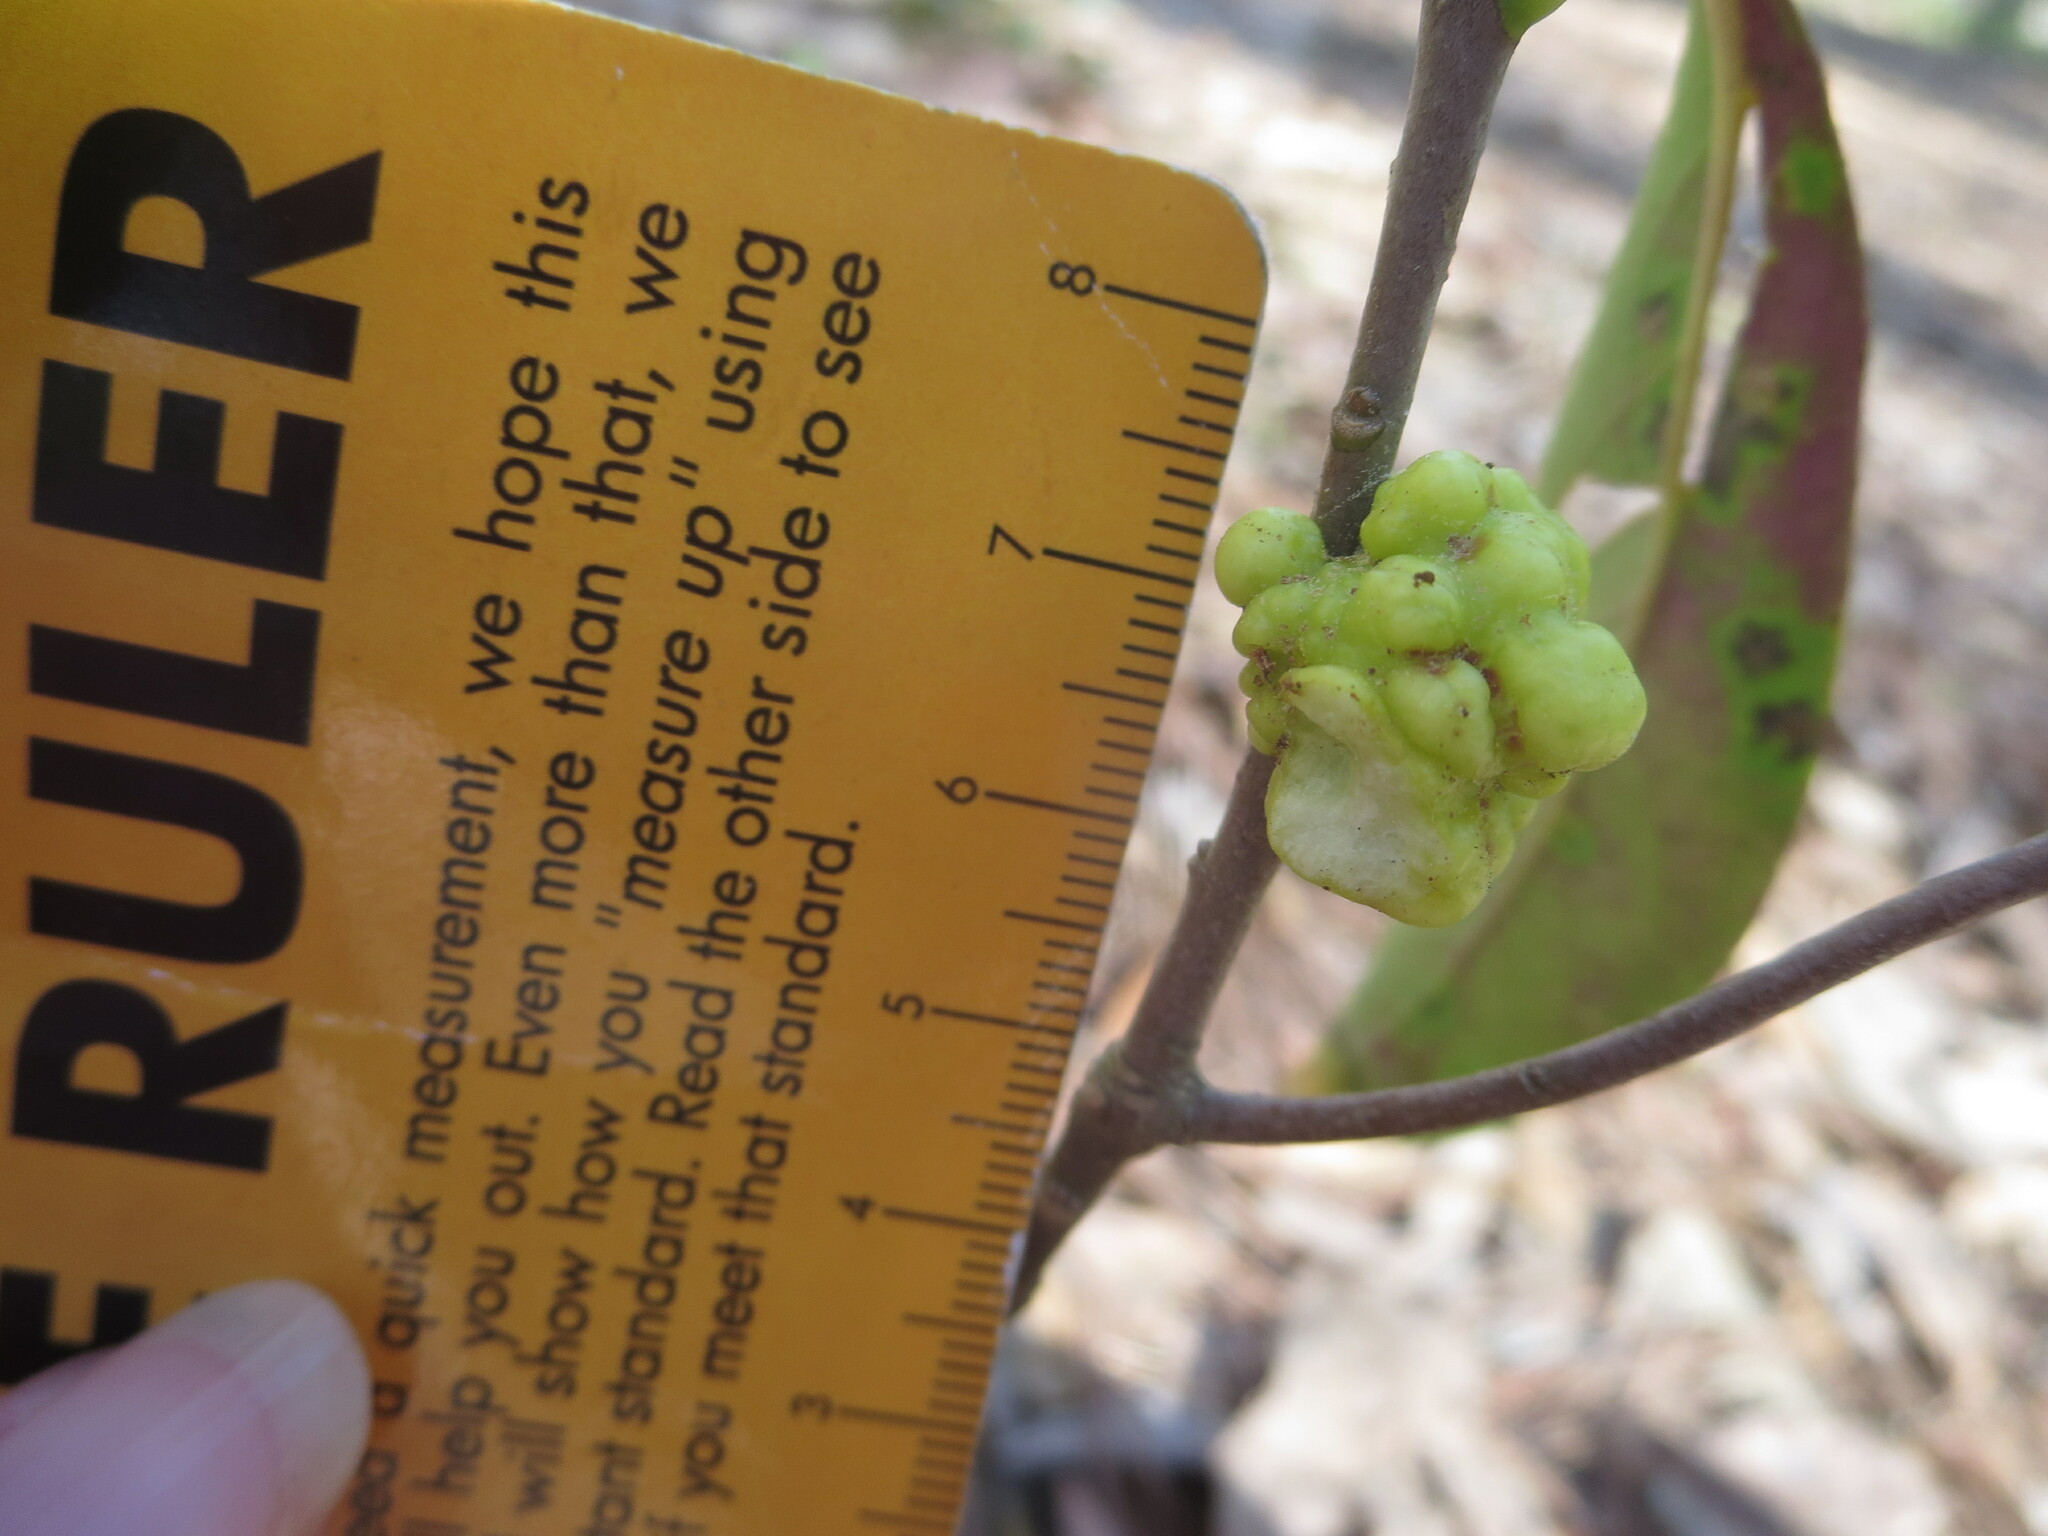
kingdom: Fungi
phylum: Basidiomycota
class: Exobasidiomycetes
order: Exobasidiales
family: Exobasidiaceae
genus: Exobasidium
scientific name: Exobasidium symploci
